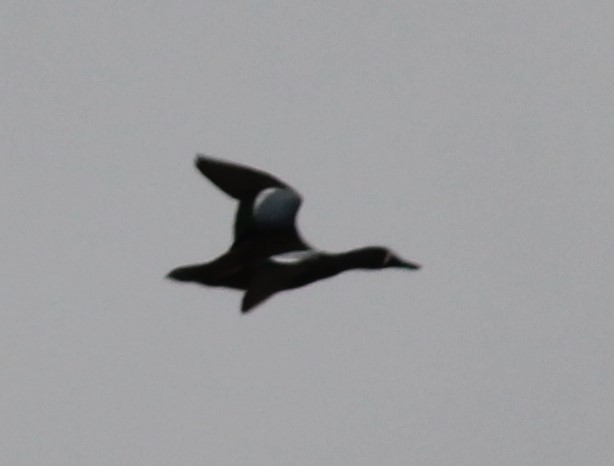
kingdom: Animalia
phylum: Chordata
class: Aves
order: Anseriformes
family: Anatidae
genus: Spatula
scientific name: Spatula discors
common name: Blue-winged teal
